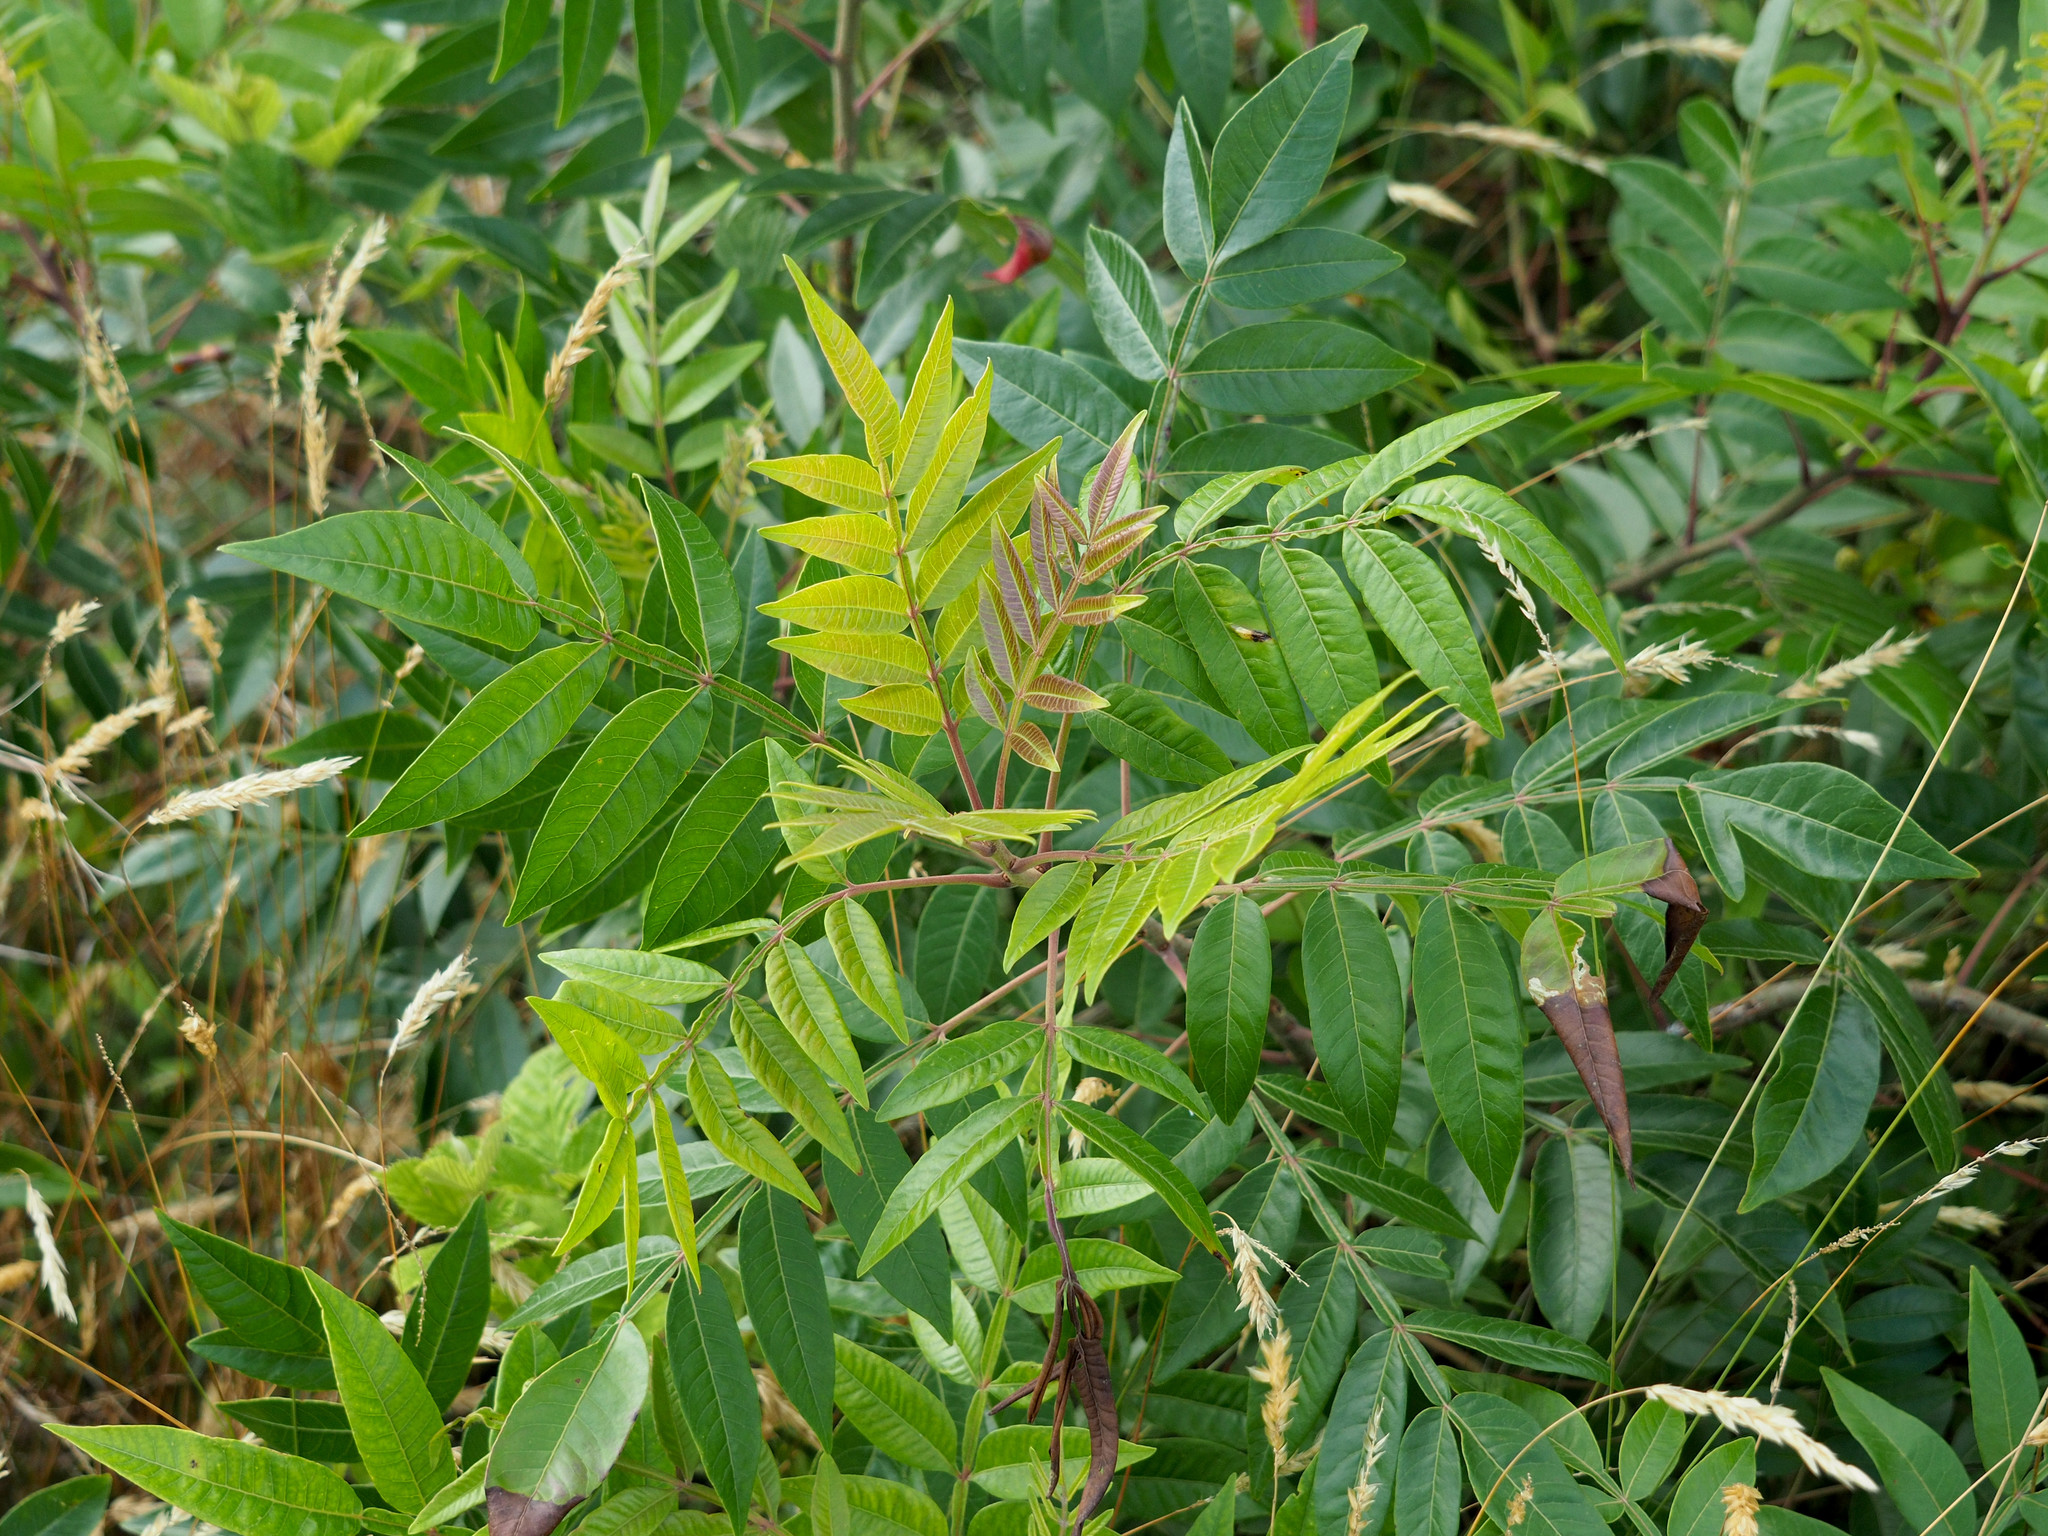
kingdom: Plantae
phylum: Tracheophyta
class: Magnoliopsida
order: Sapindales
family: Anacardiaceae
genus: Rhus
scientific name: Rhus copallina
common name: Shining sumac
